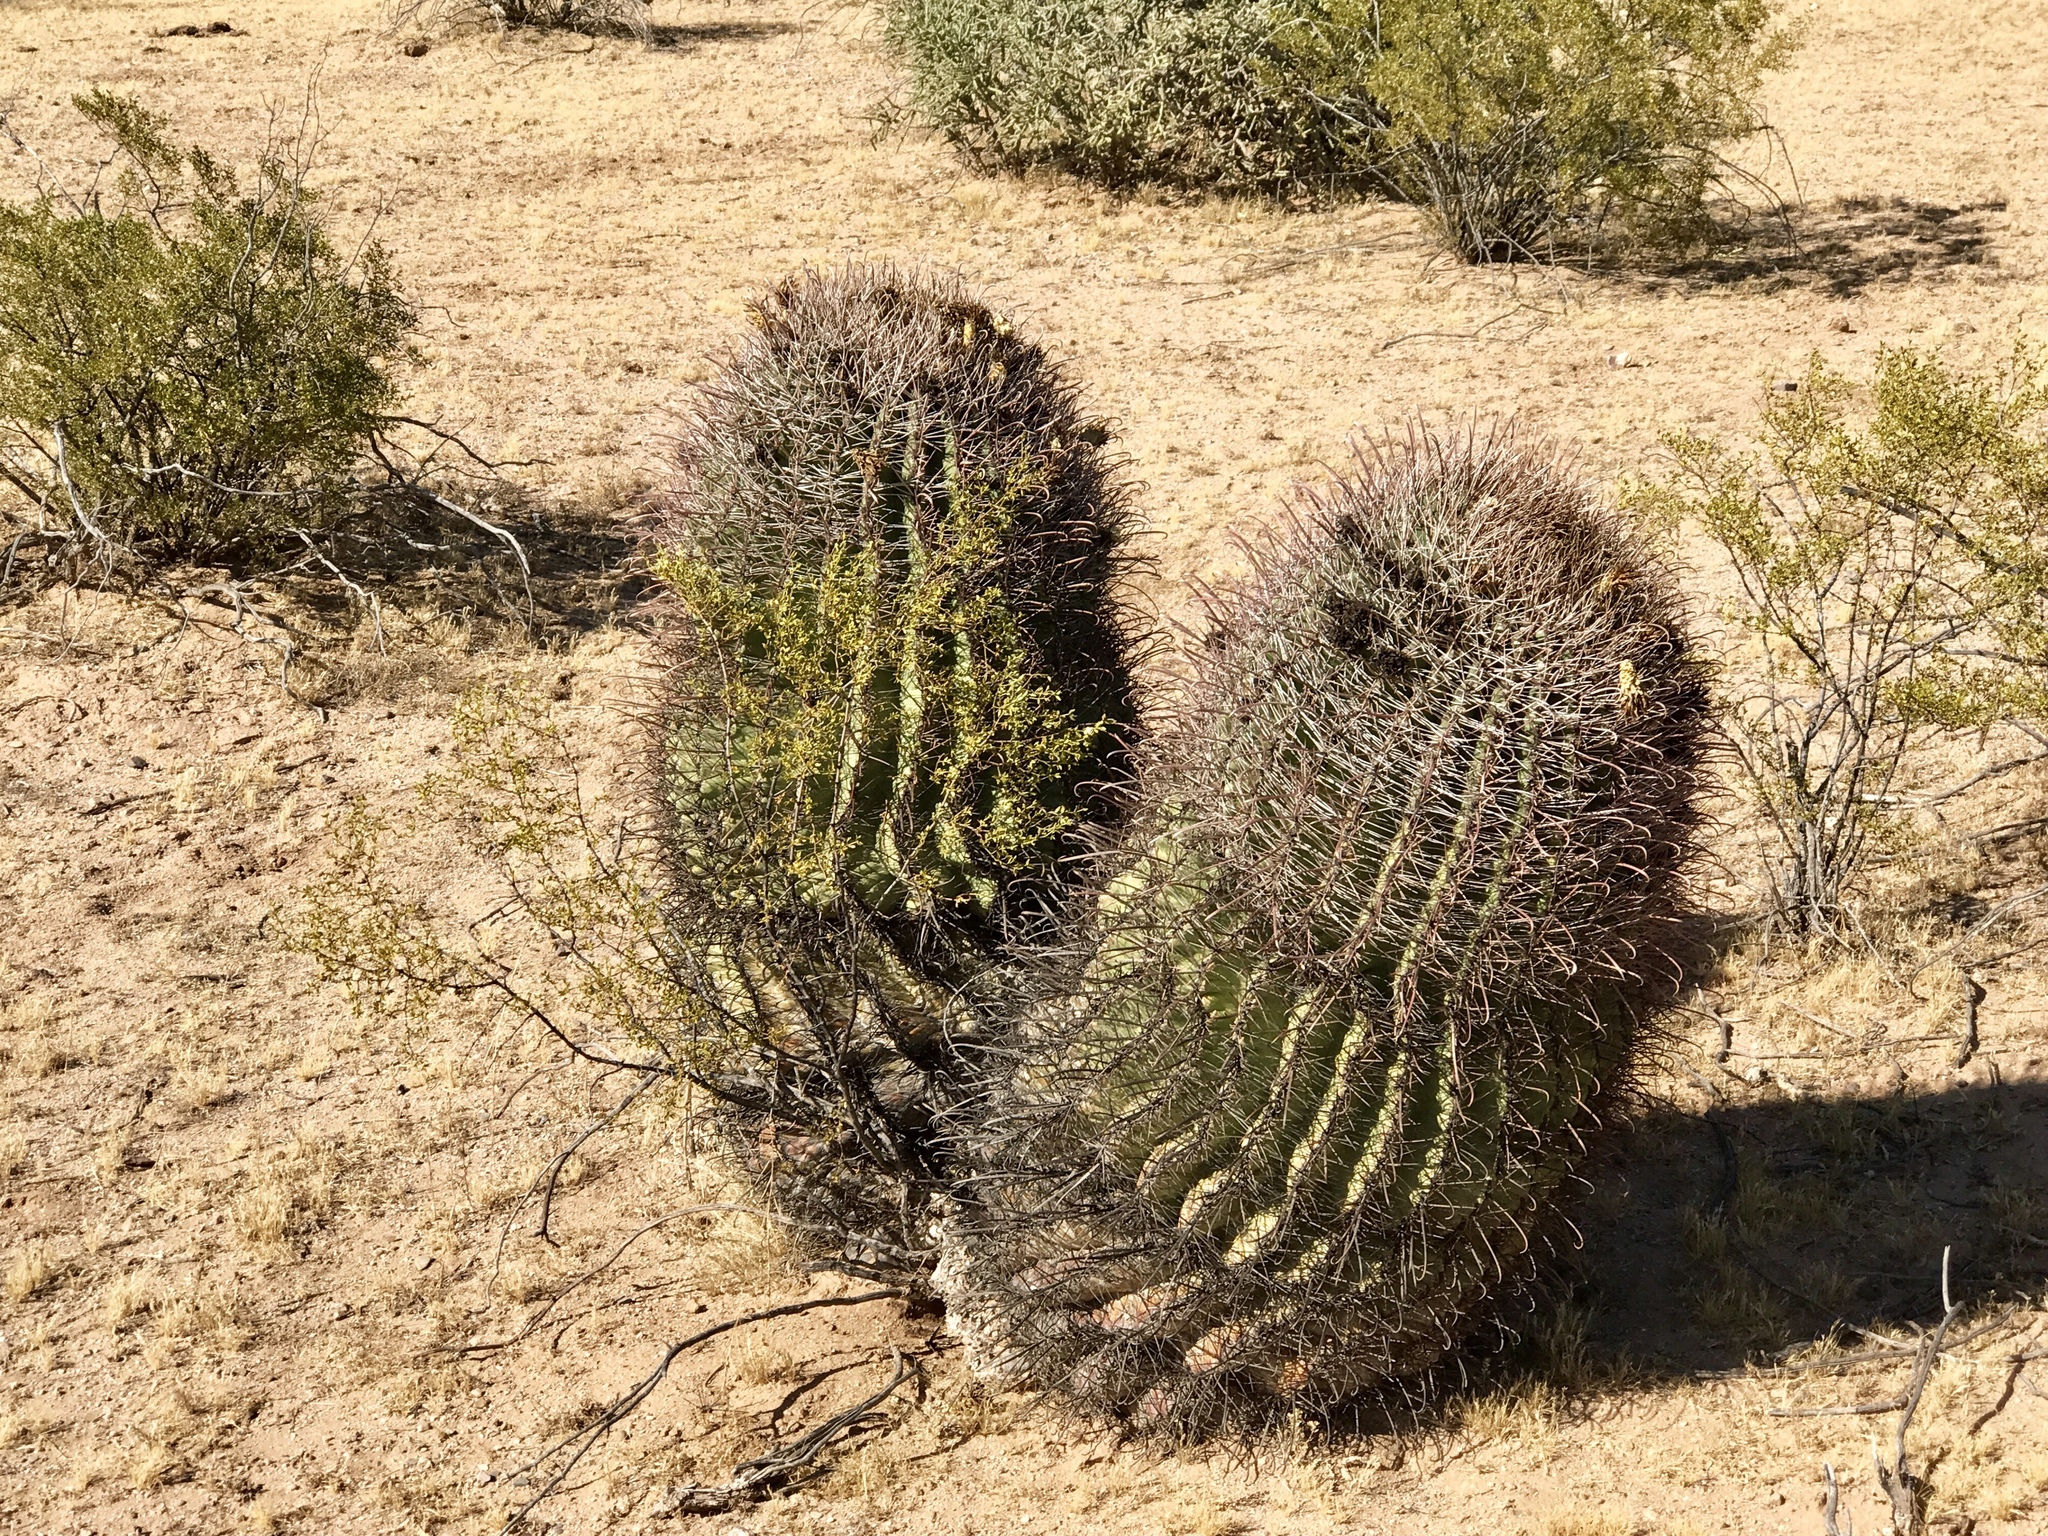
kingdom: Plantae
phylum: Tracheophyta
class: Magnoliopsida
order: Caryophyllales
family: Cactaceae
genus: Ferocactus
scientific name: Ferocactus wislizeni
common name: Candy barrel cactus
